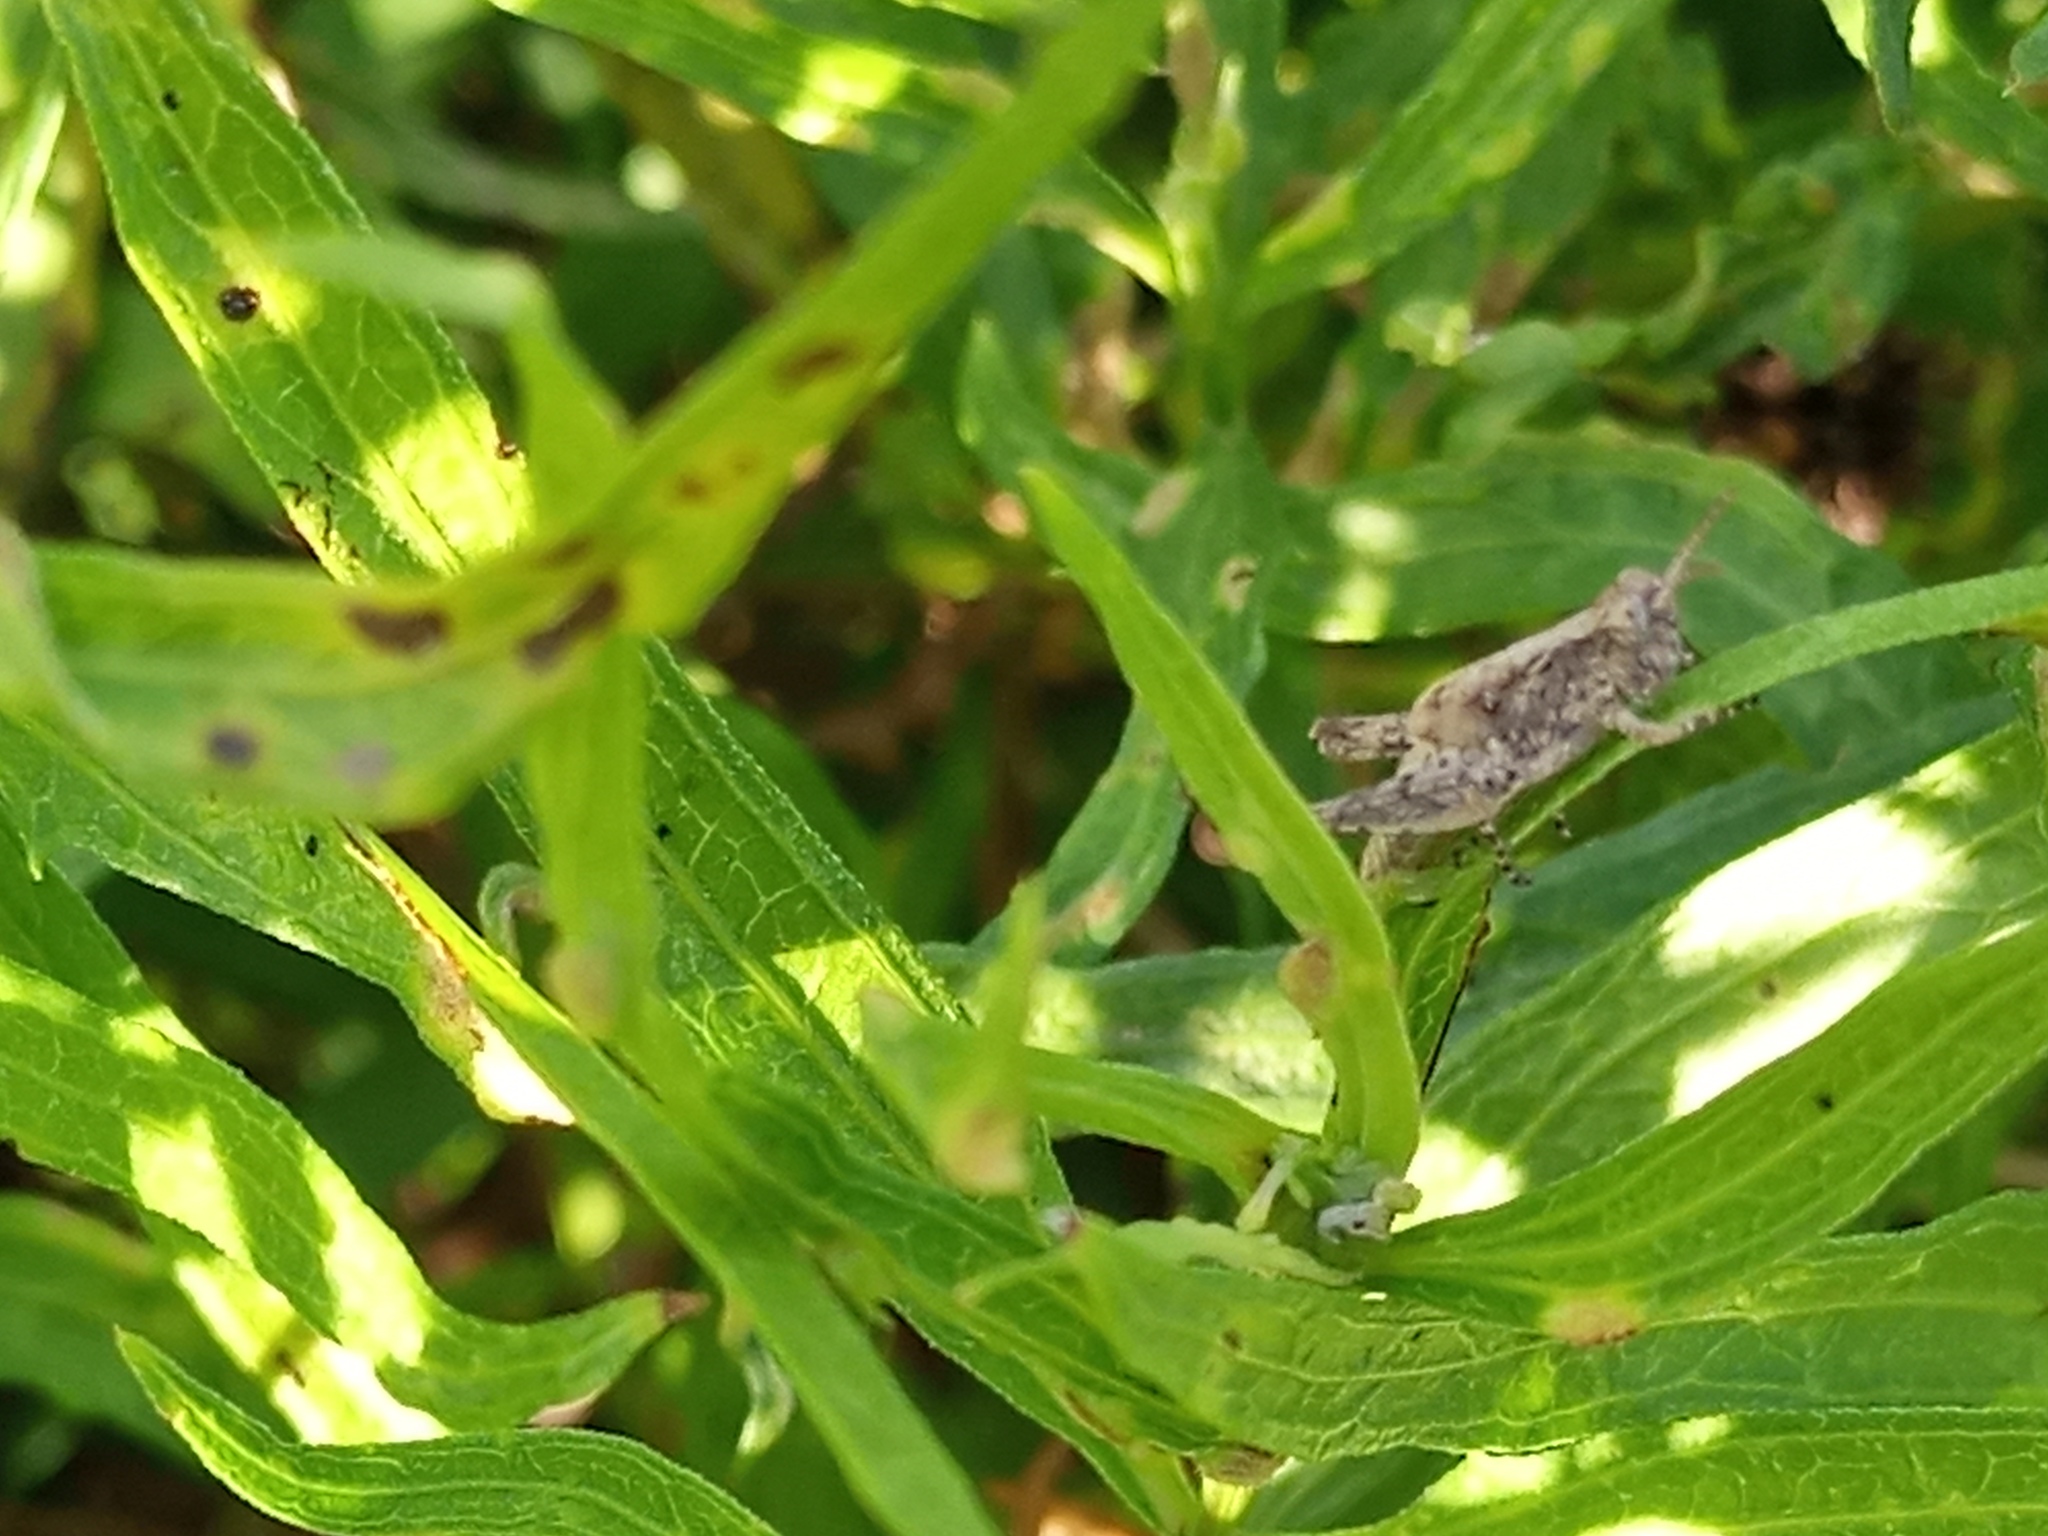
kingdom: Animalia
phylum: Arthropoda
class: Insecta
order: Orthoptera
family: Acrididae
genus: Orphulella
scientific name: Orphulella punctata
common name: Slant-faced grasshopper
